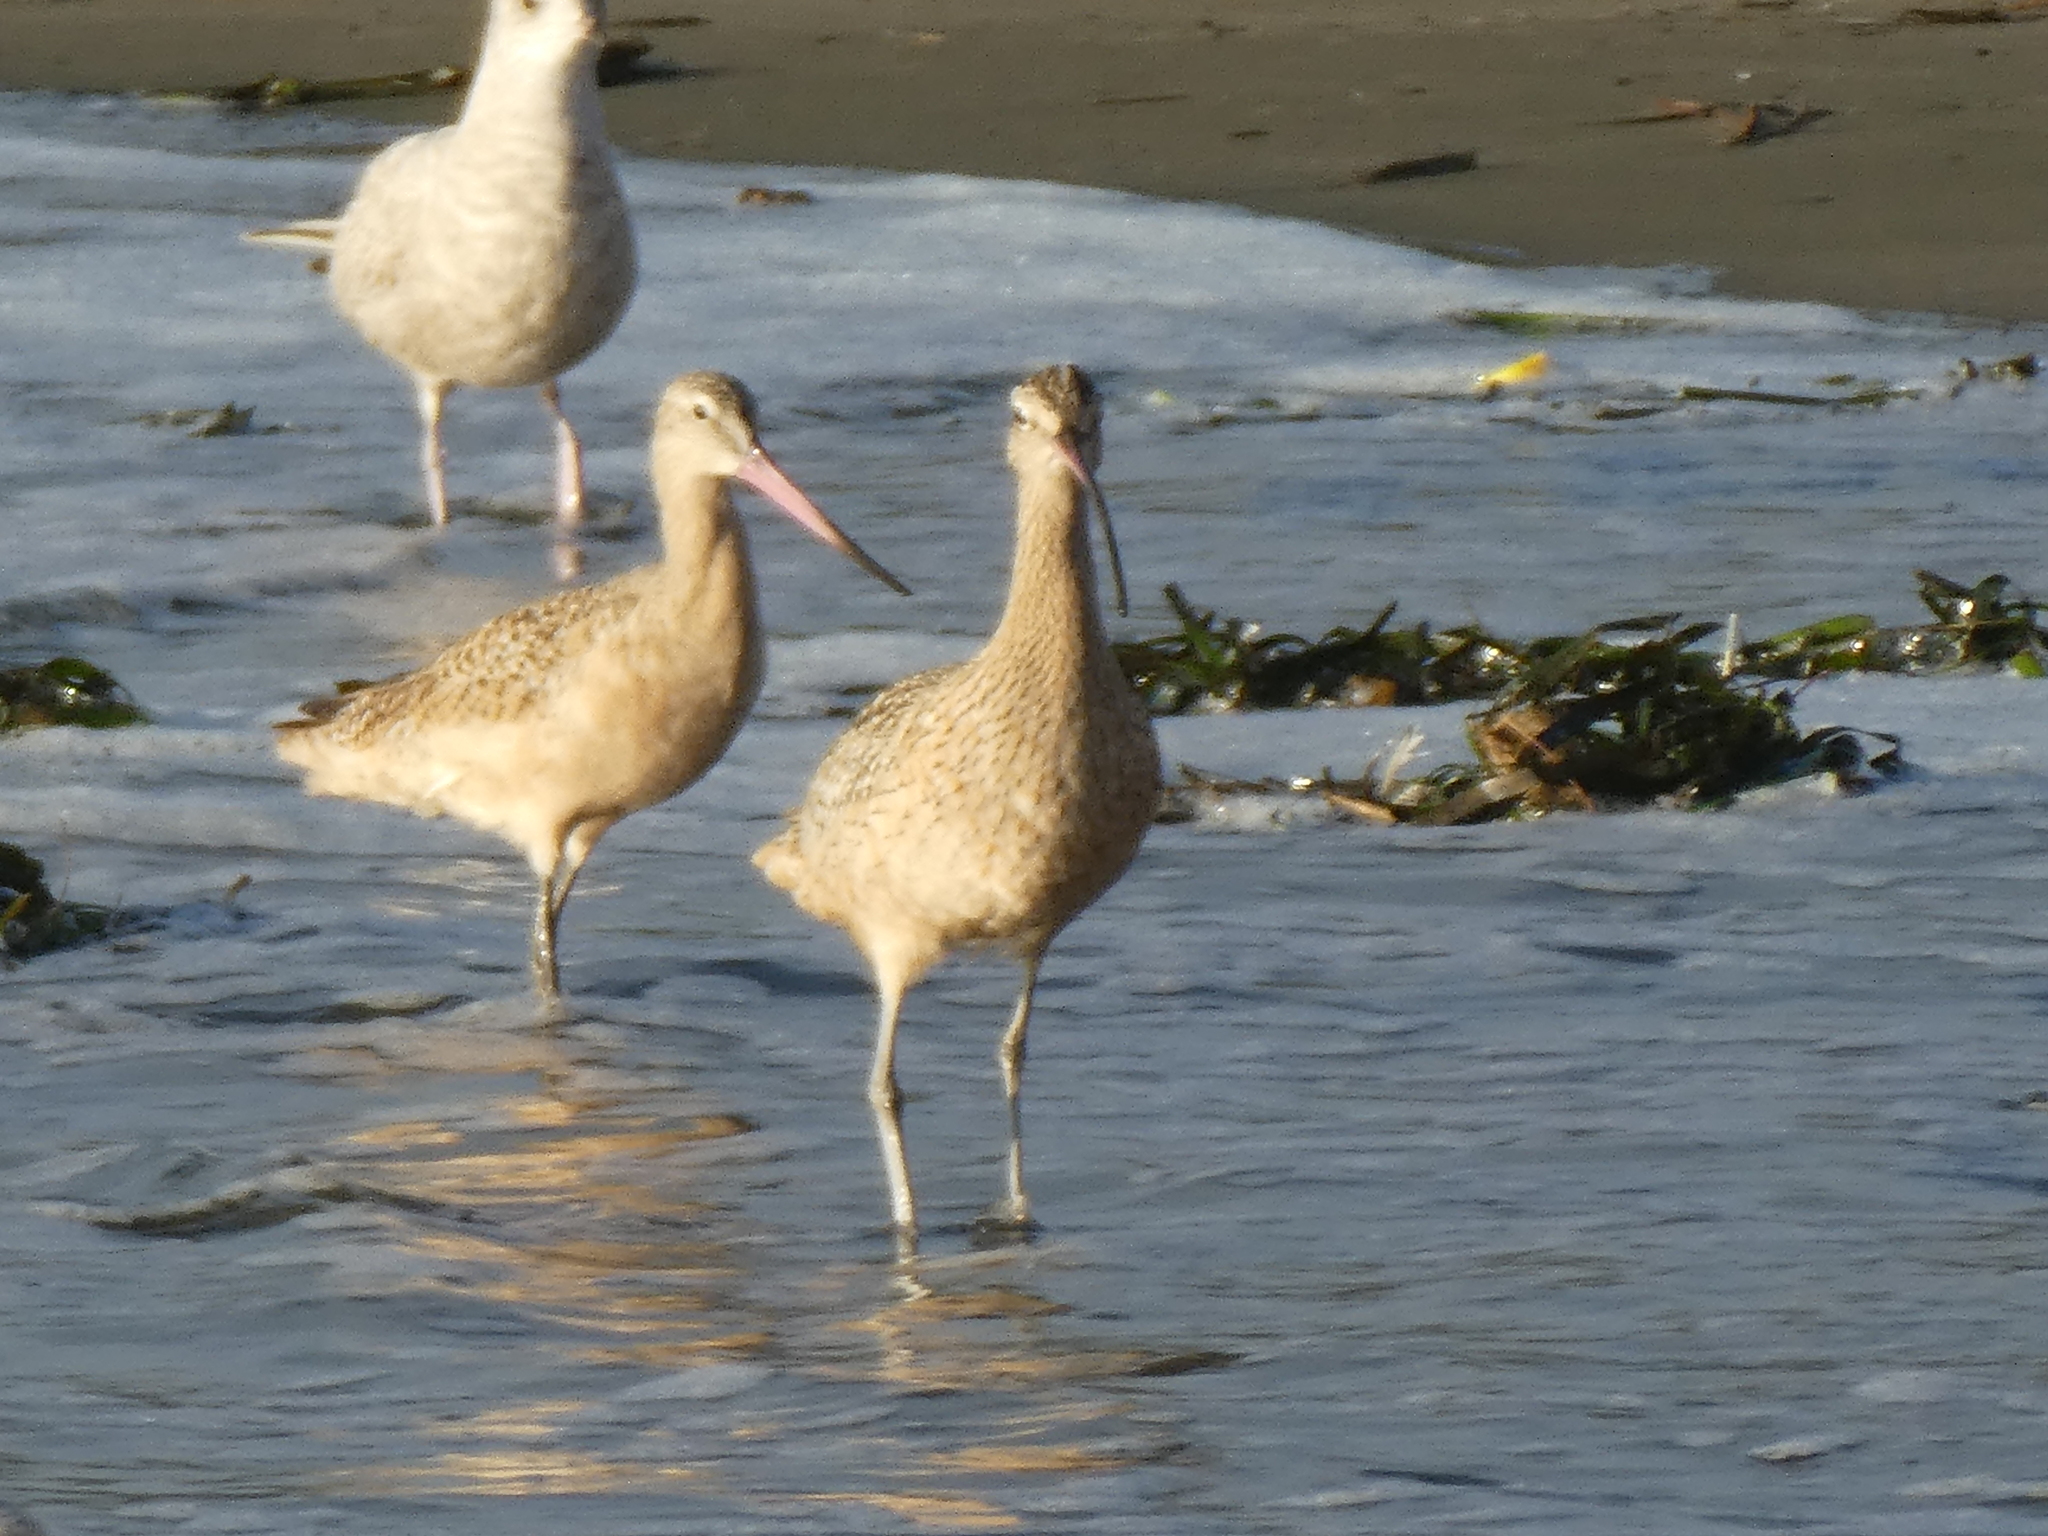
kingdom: Animalia
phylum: Chordata
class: Aves
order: Charadriiformes
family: Scolopacidae
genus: Limosa
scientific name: Limosa fedoa
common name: Marbled godwit
